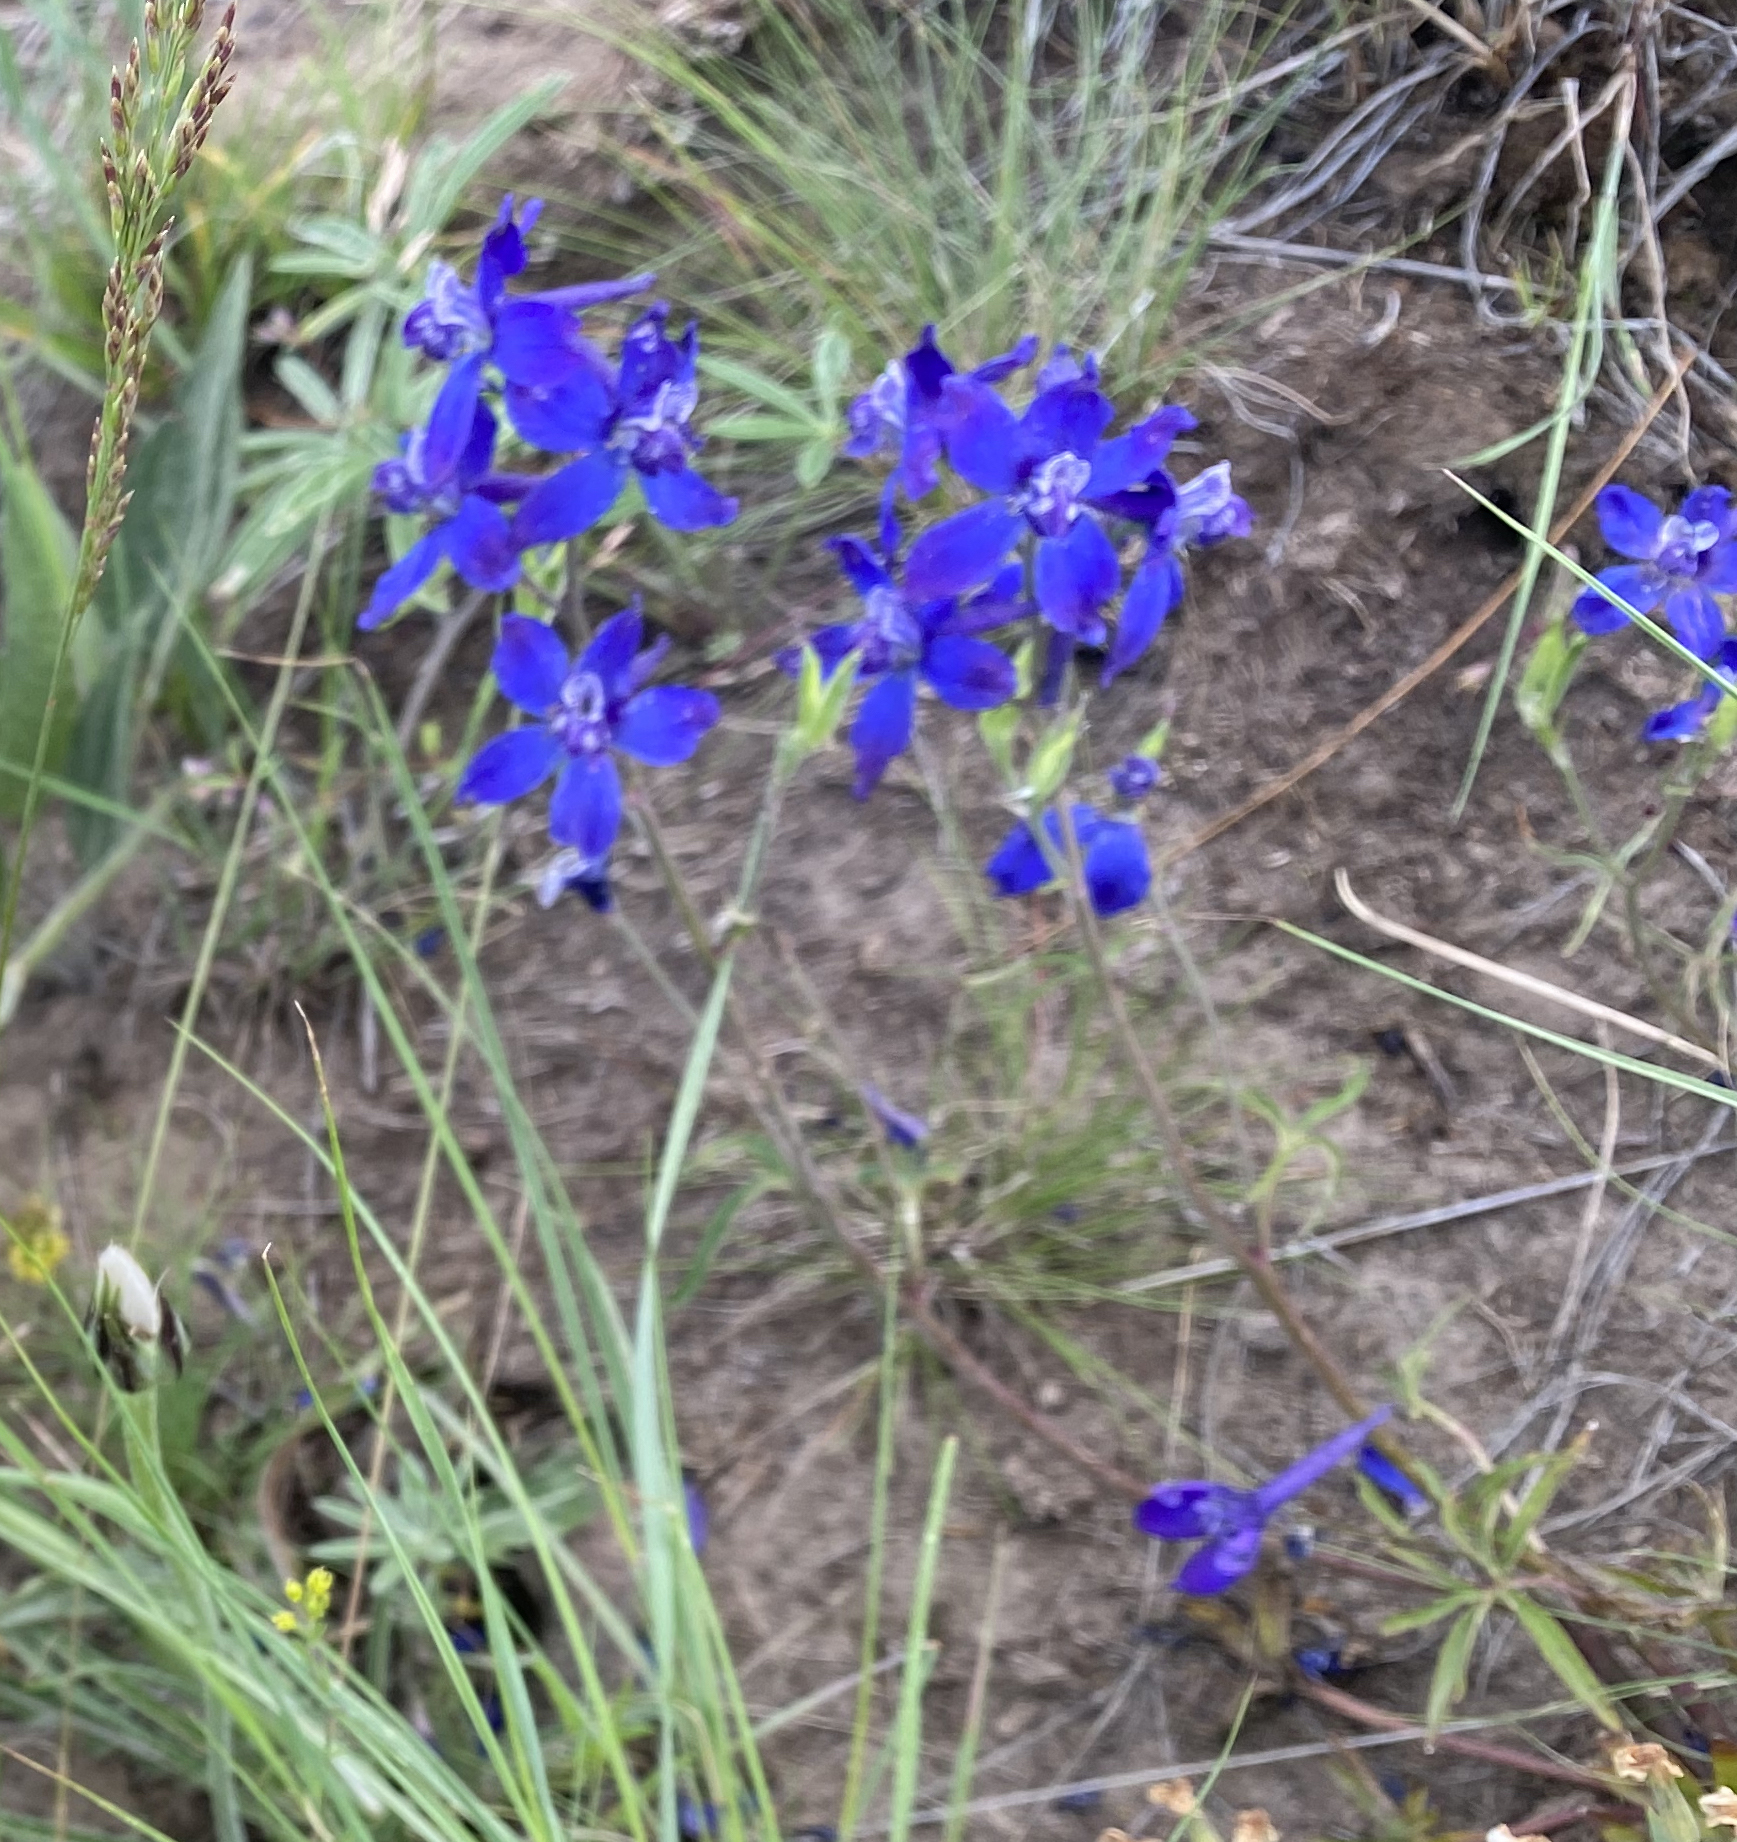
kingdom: Plantae
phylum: Tracheophyta
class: Magnoliopsida
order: Ranunculales
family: Ranunculaceae
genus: Delphinium
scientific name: Delphinium nuttallianum
